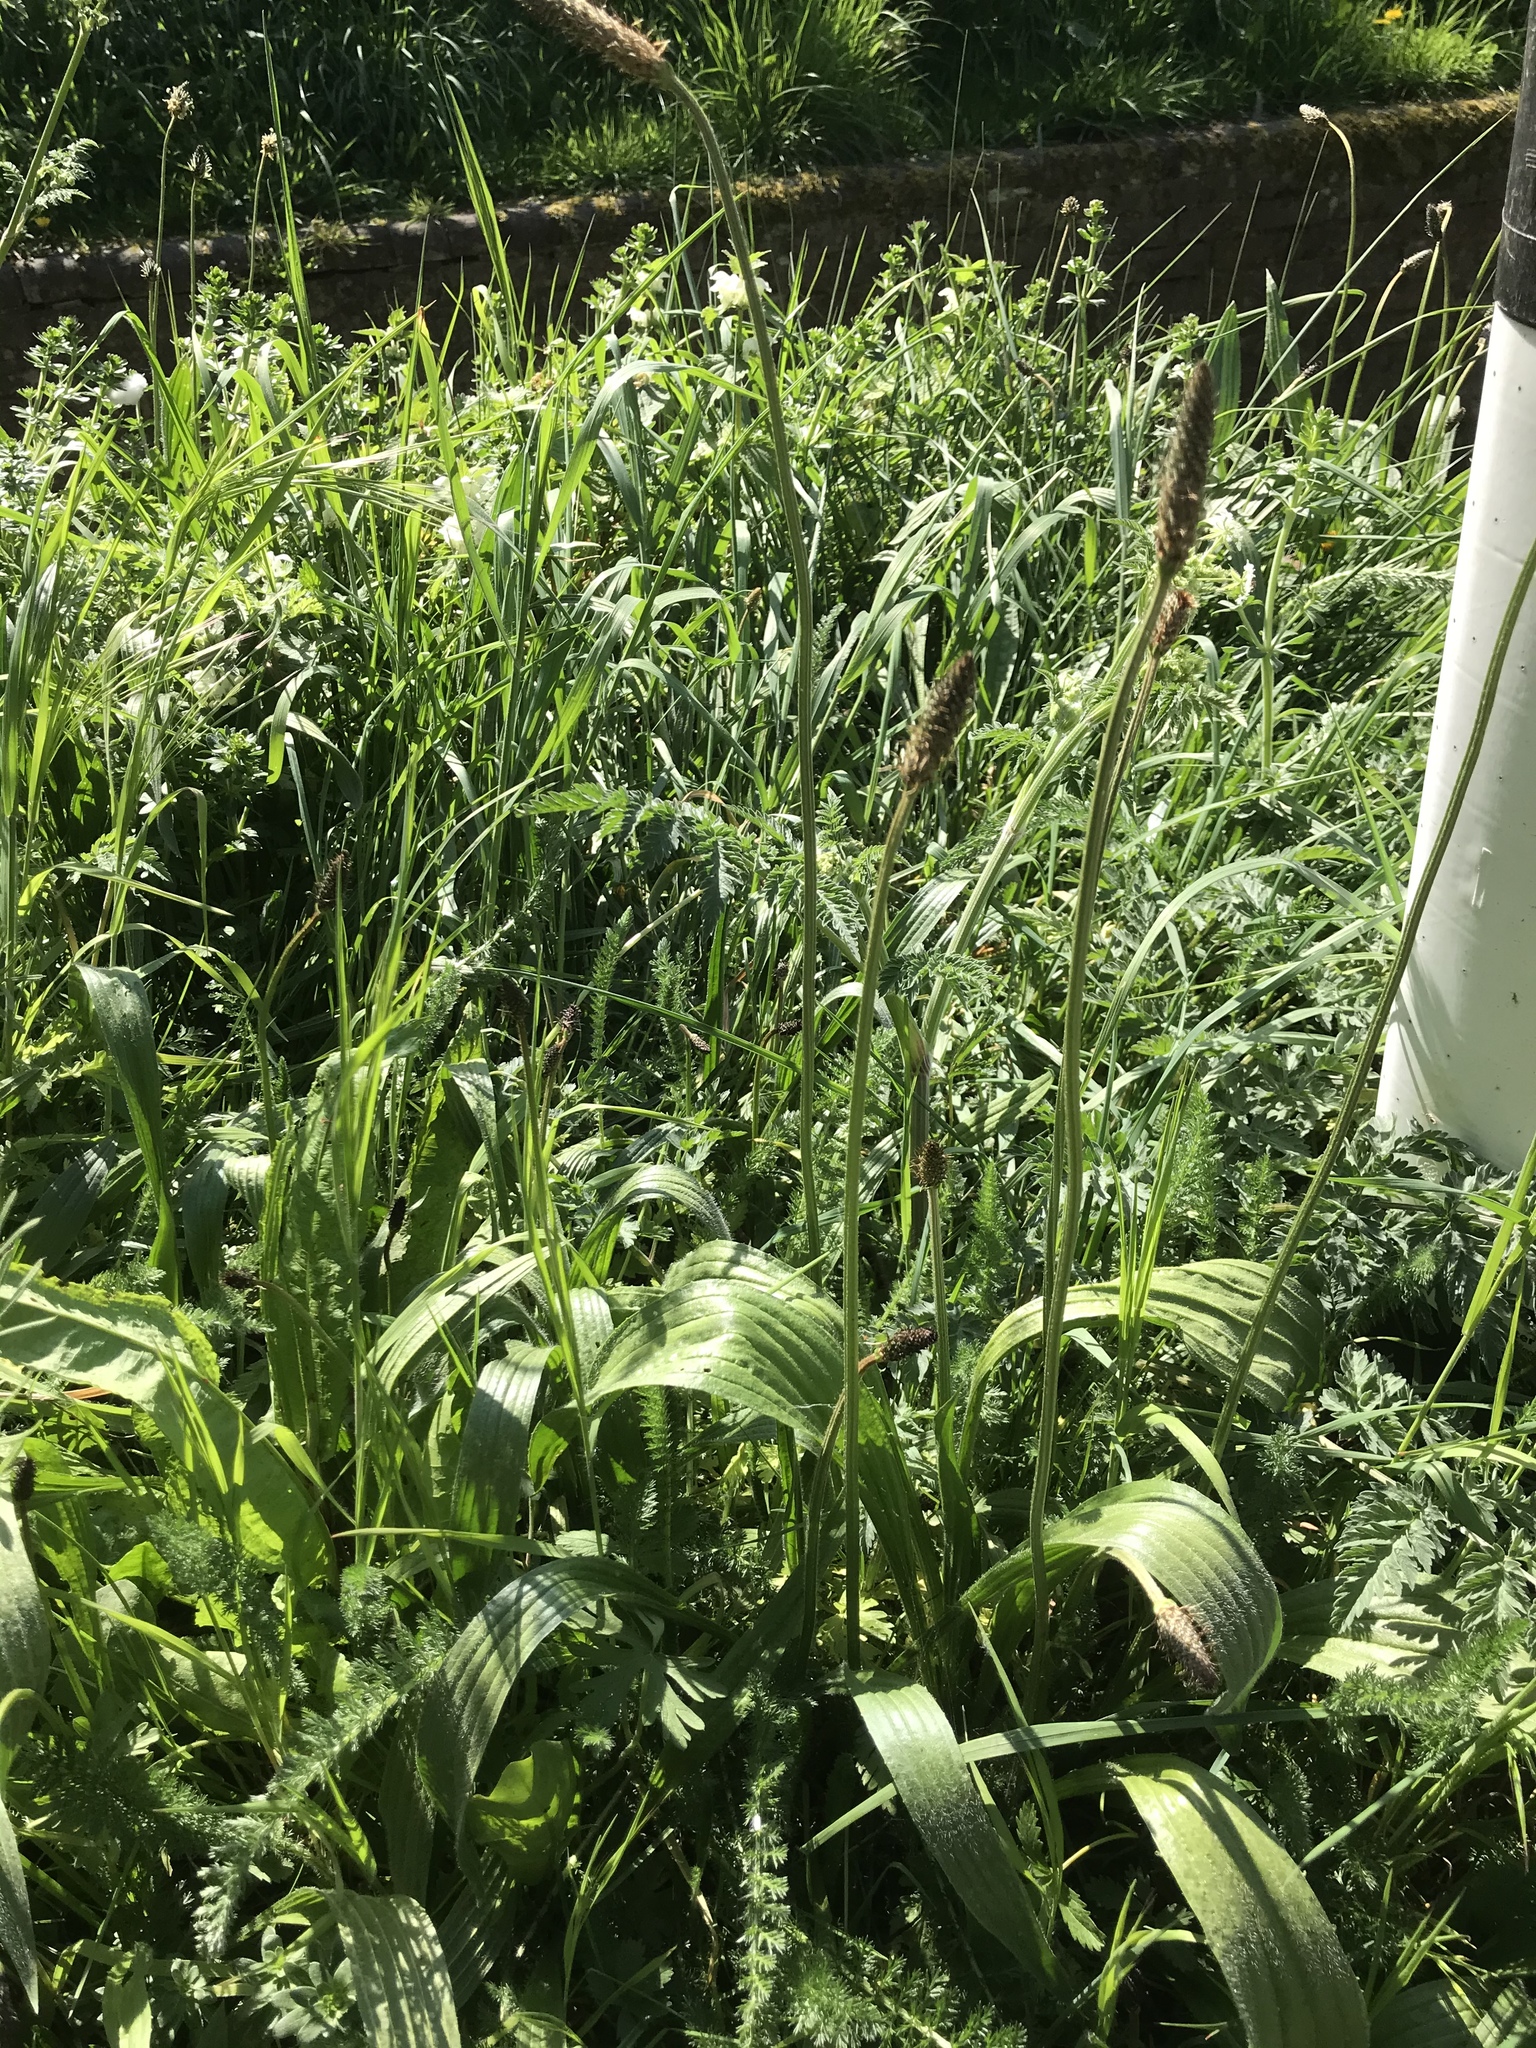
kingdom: Plantae
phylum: Tracheophyta
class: Magnoliopsida
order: Lamiales
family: Plantaginaceae
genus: Plantago
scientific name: Plantago lanceolata
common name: Ribwort plantain
